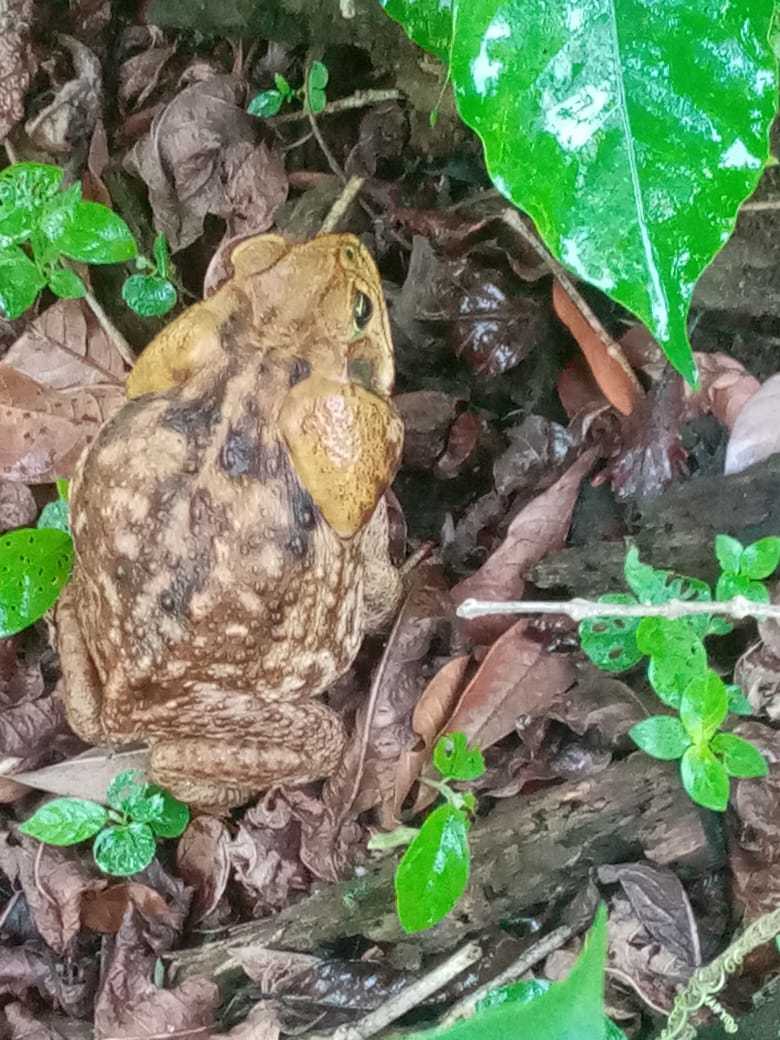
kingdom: Animalia
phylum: Chordata
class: Amphibia
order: Anura
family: Bufonidae
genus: Rhinella
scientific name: Rhinella horribilis
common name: Mesoamerican cane toad
